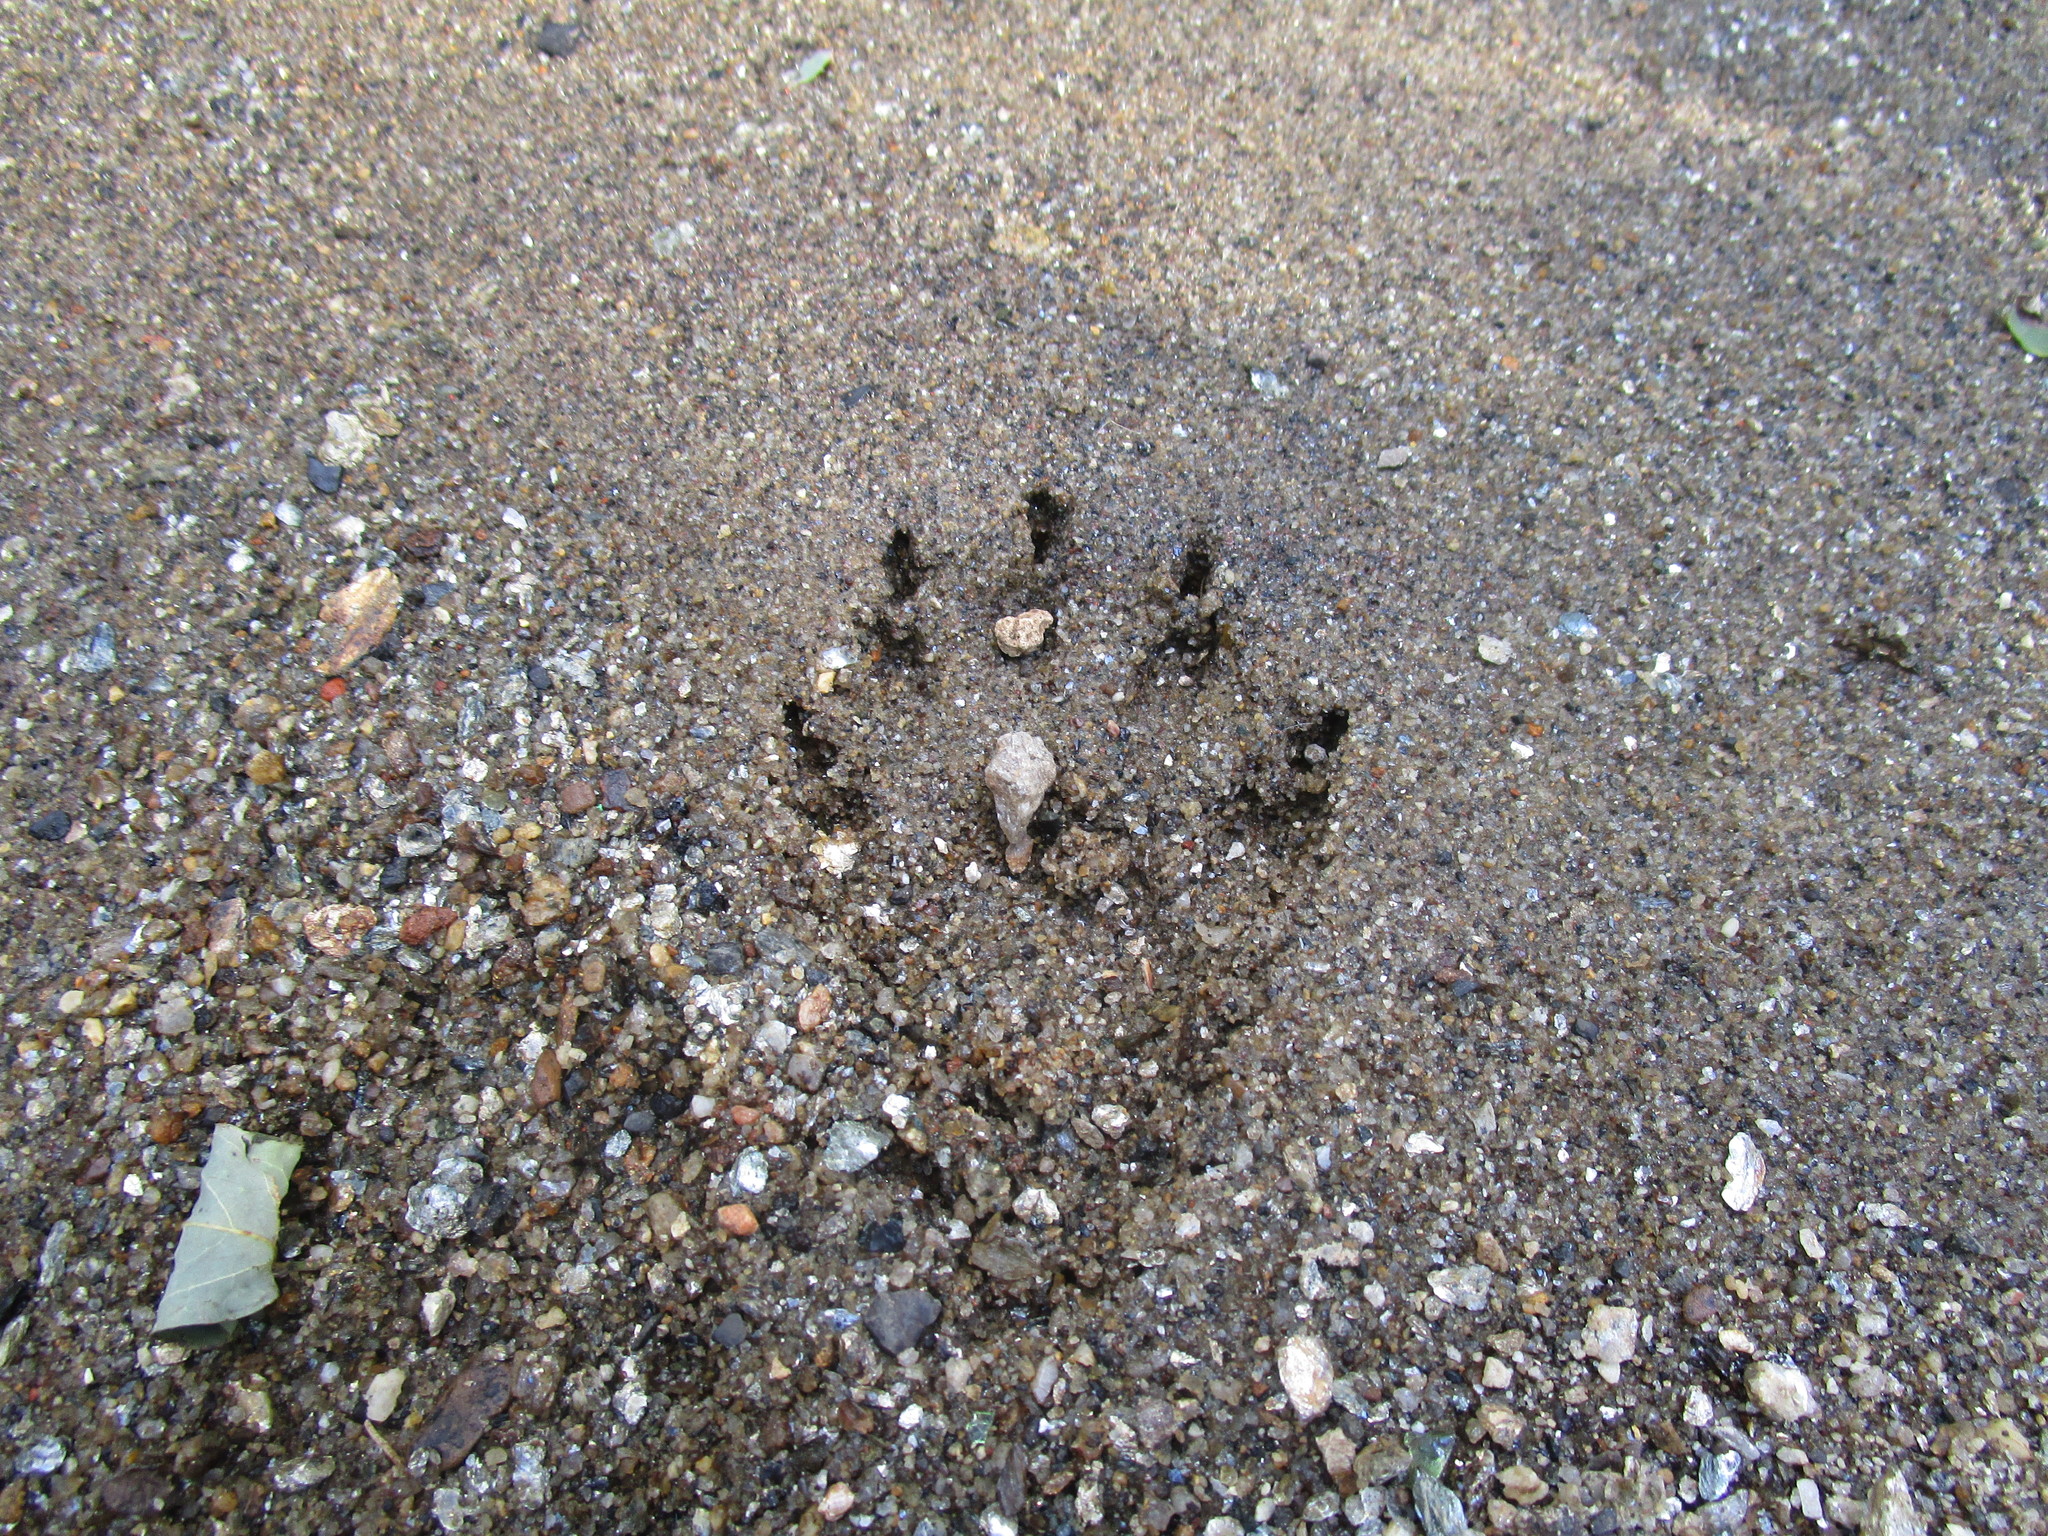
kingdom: Animalia
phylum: Chordata
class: Mammalia
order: Carnivora
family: Procyonidae
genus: Procyon
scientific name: Procyon lotor
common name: Raccoon
